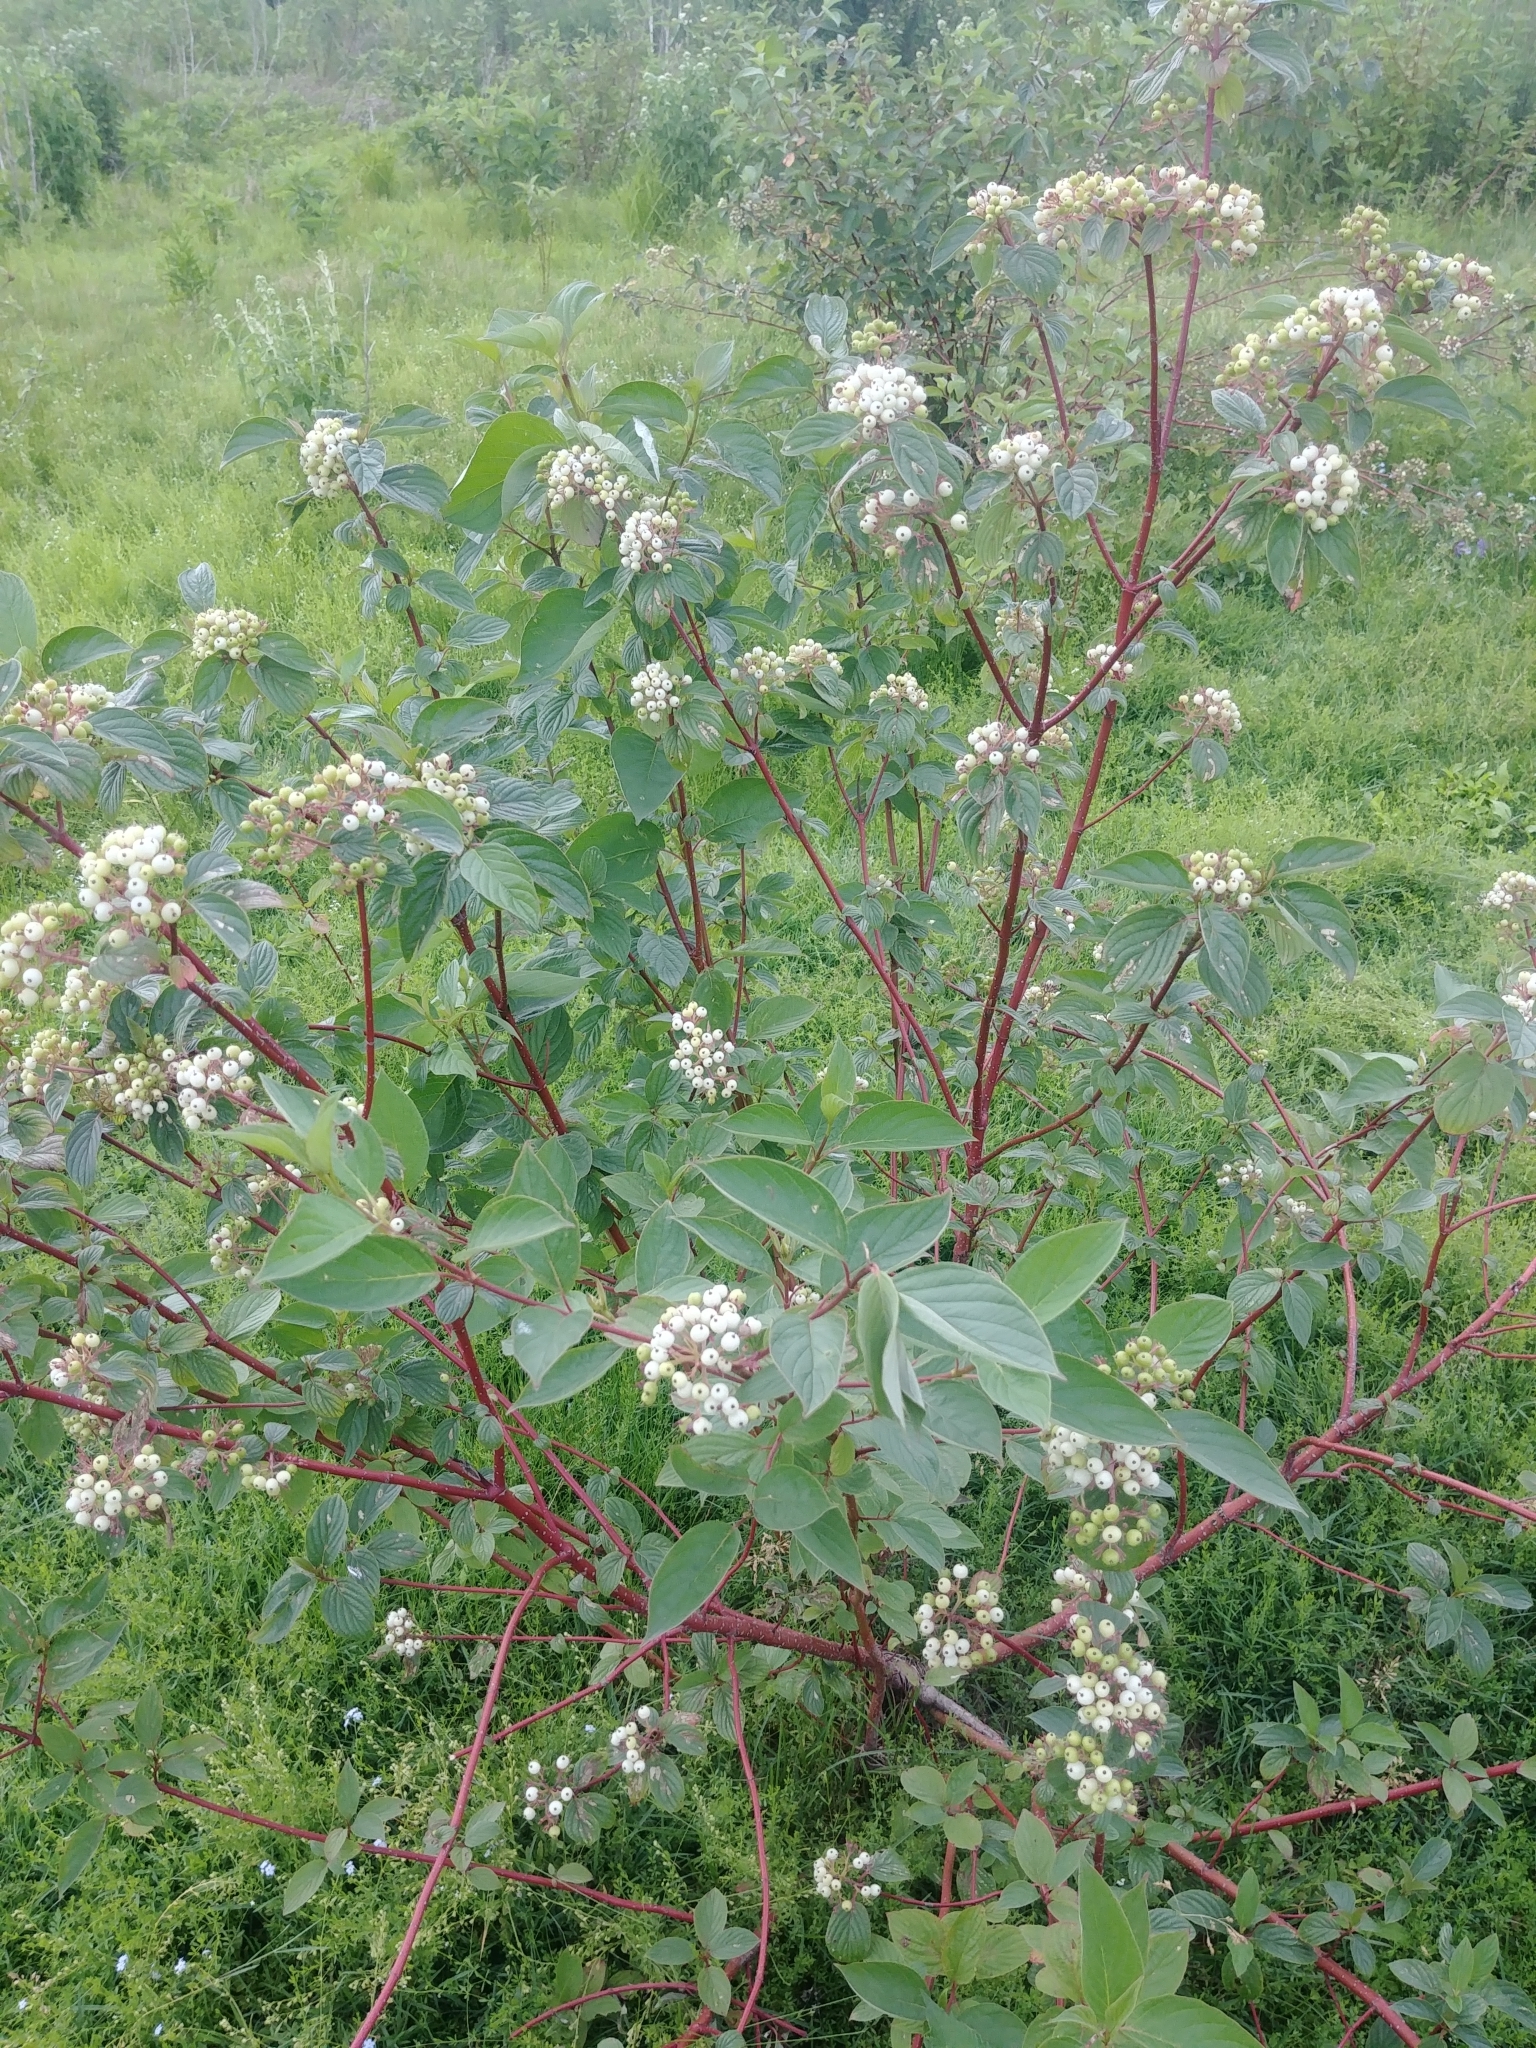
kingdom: Plantae
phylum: Tracheophyta
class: Magnoliopsida
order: Cornales
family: Cornaceae
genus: Cornus
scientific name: Cornus sericea
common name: Red-osier dogwood
